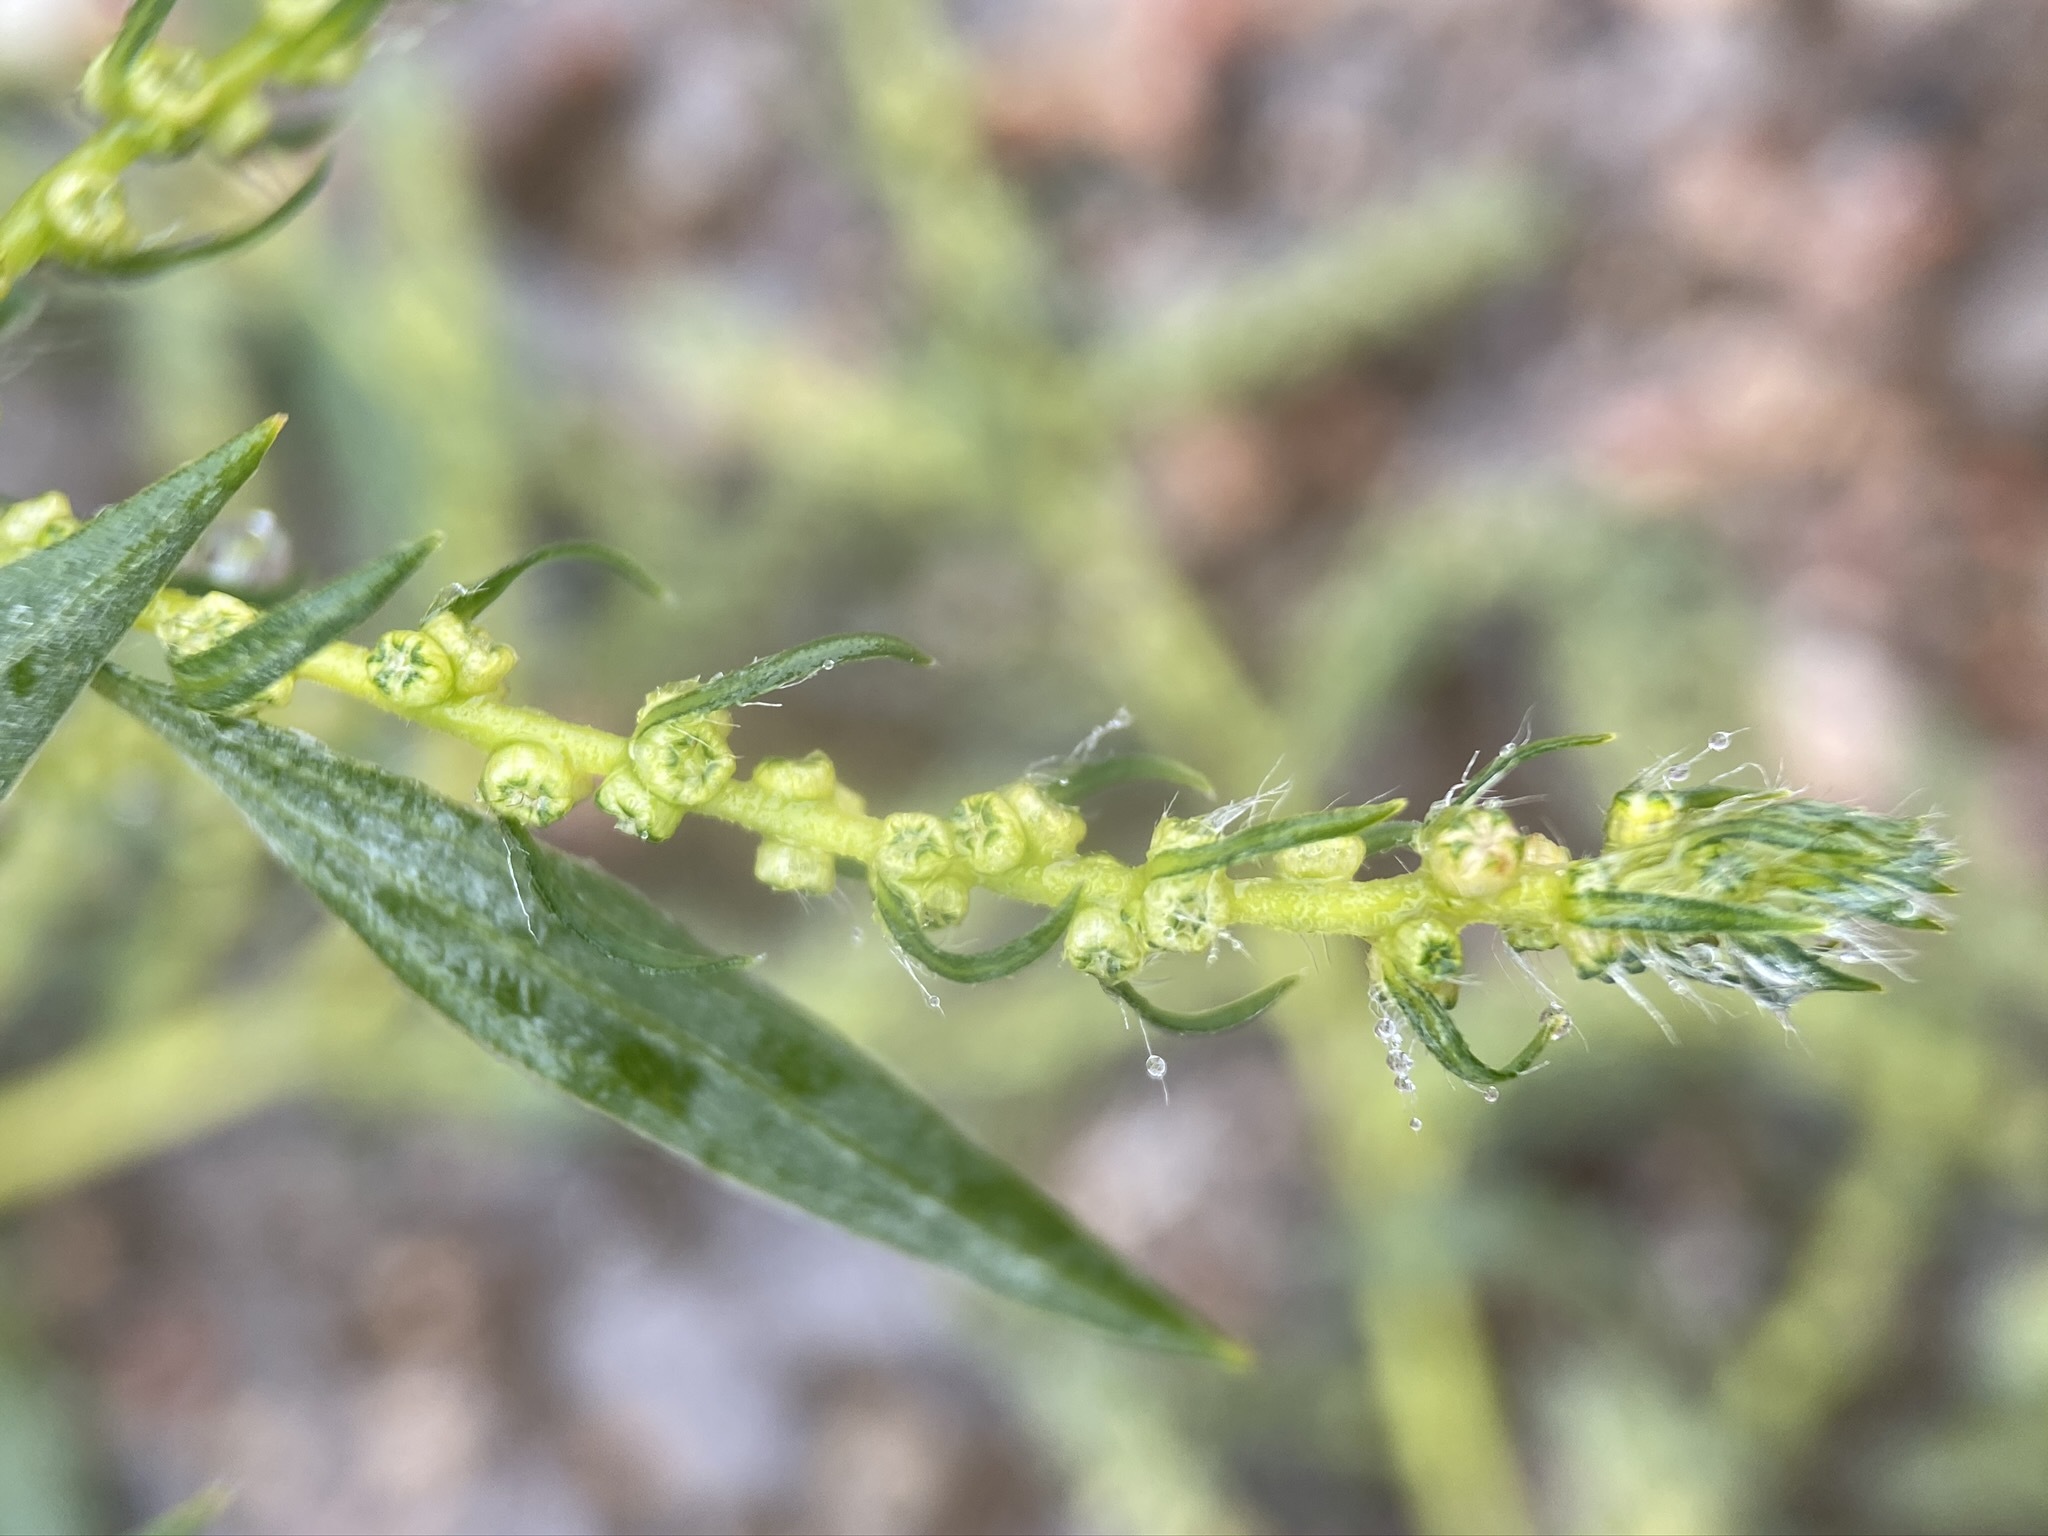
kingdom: Plantae
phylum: Tracheophyta
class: Magnoliopsida
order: Caryophyllales
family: Amaranthaceae
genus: Bassia
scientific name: Bassia scoparia
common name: Belvedere
